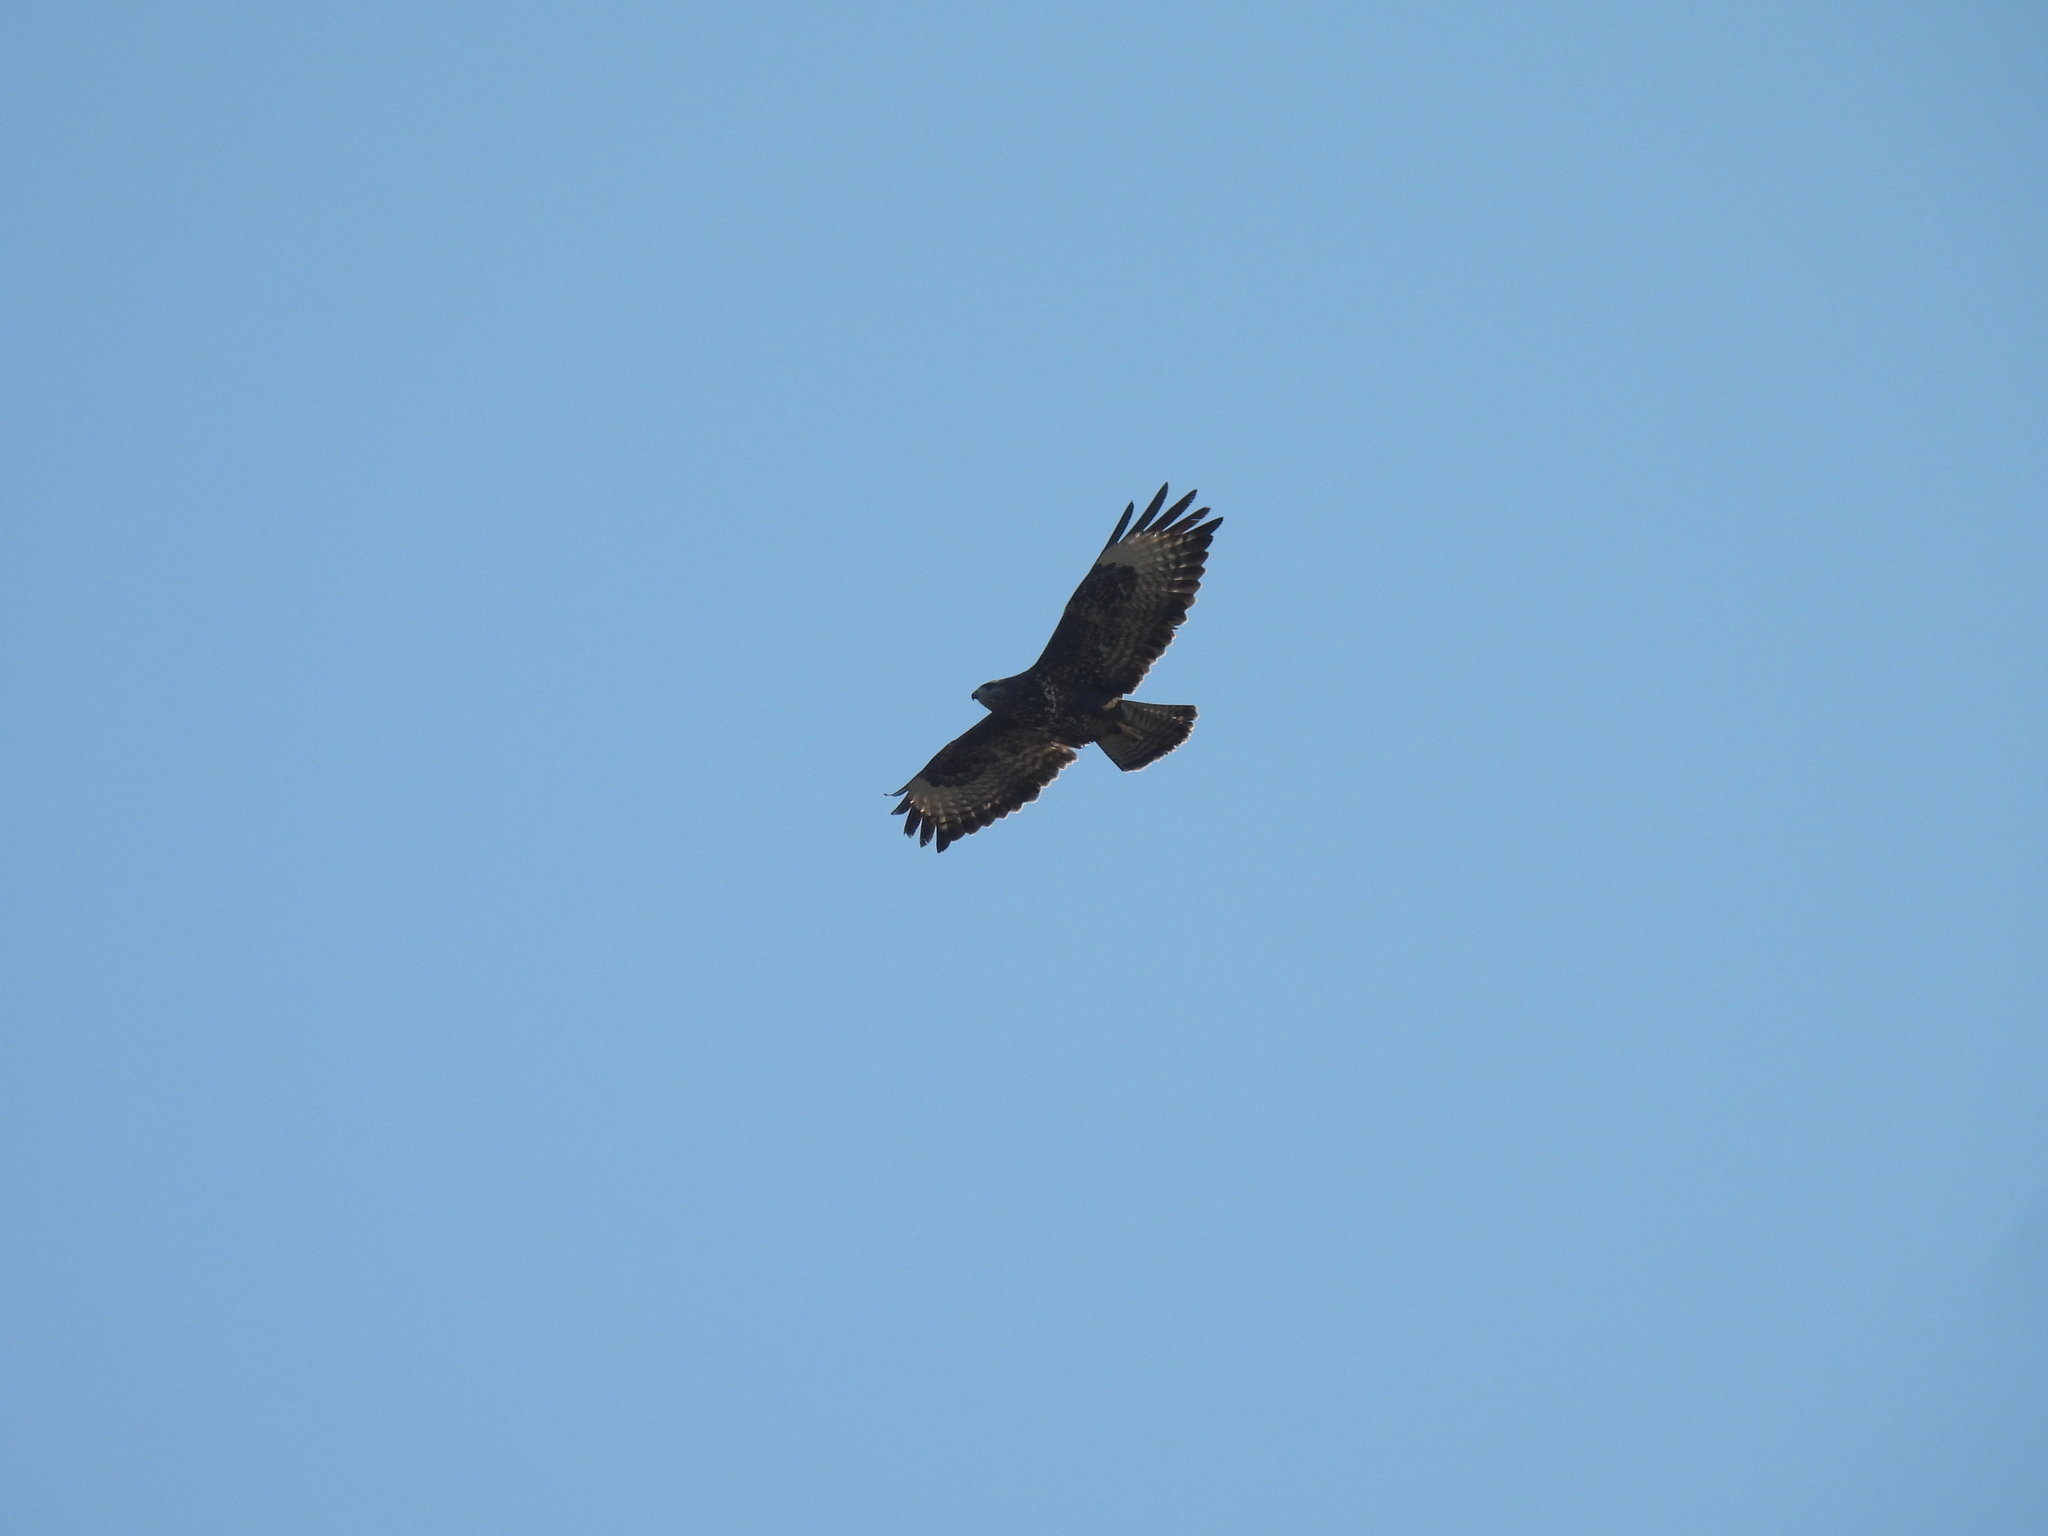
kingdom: Animalia
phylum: Chordata
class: Aves
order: Accipitriformes
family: Accipitridae
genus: Buteo
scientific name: Buteo buteo
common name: Common buzzard
